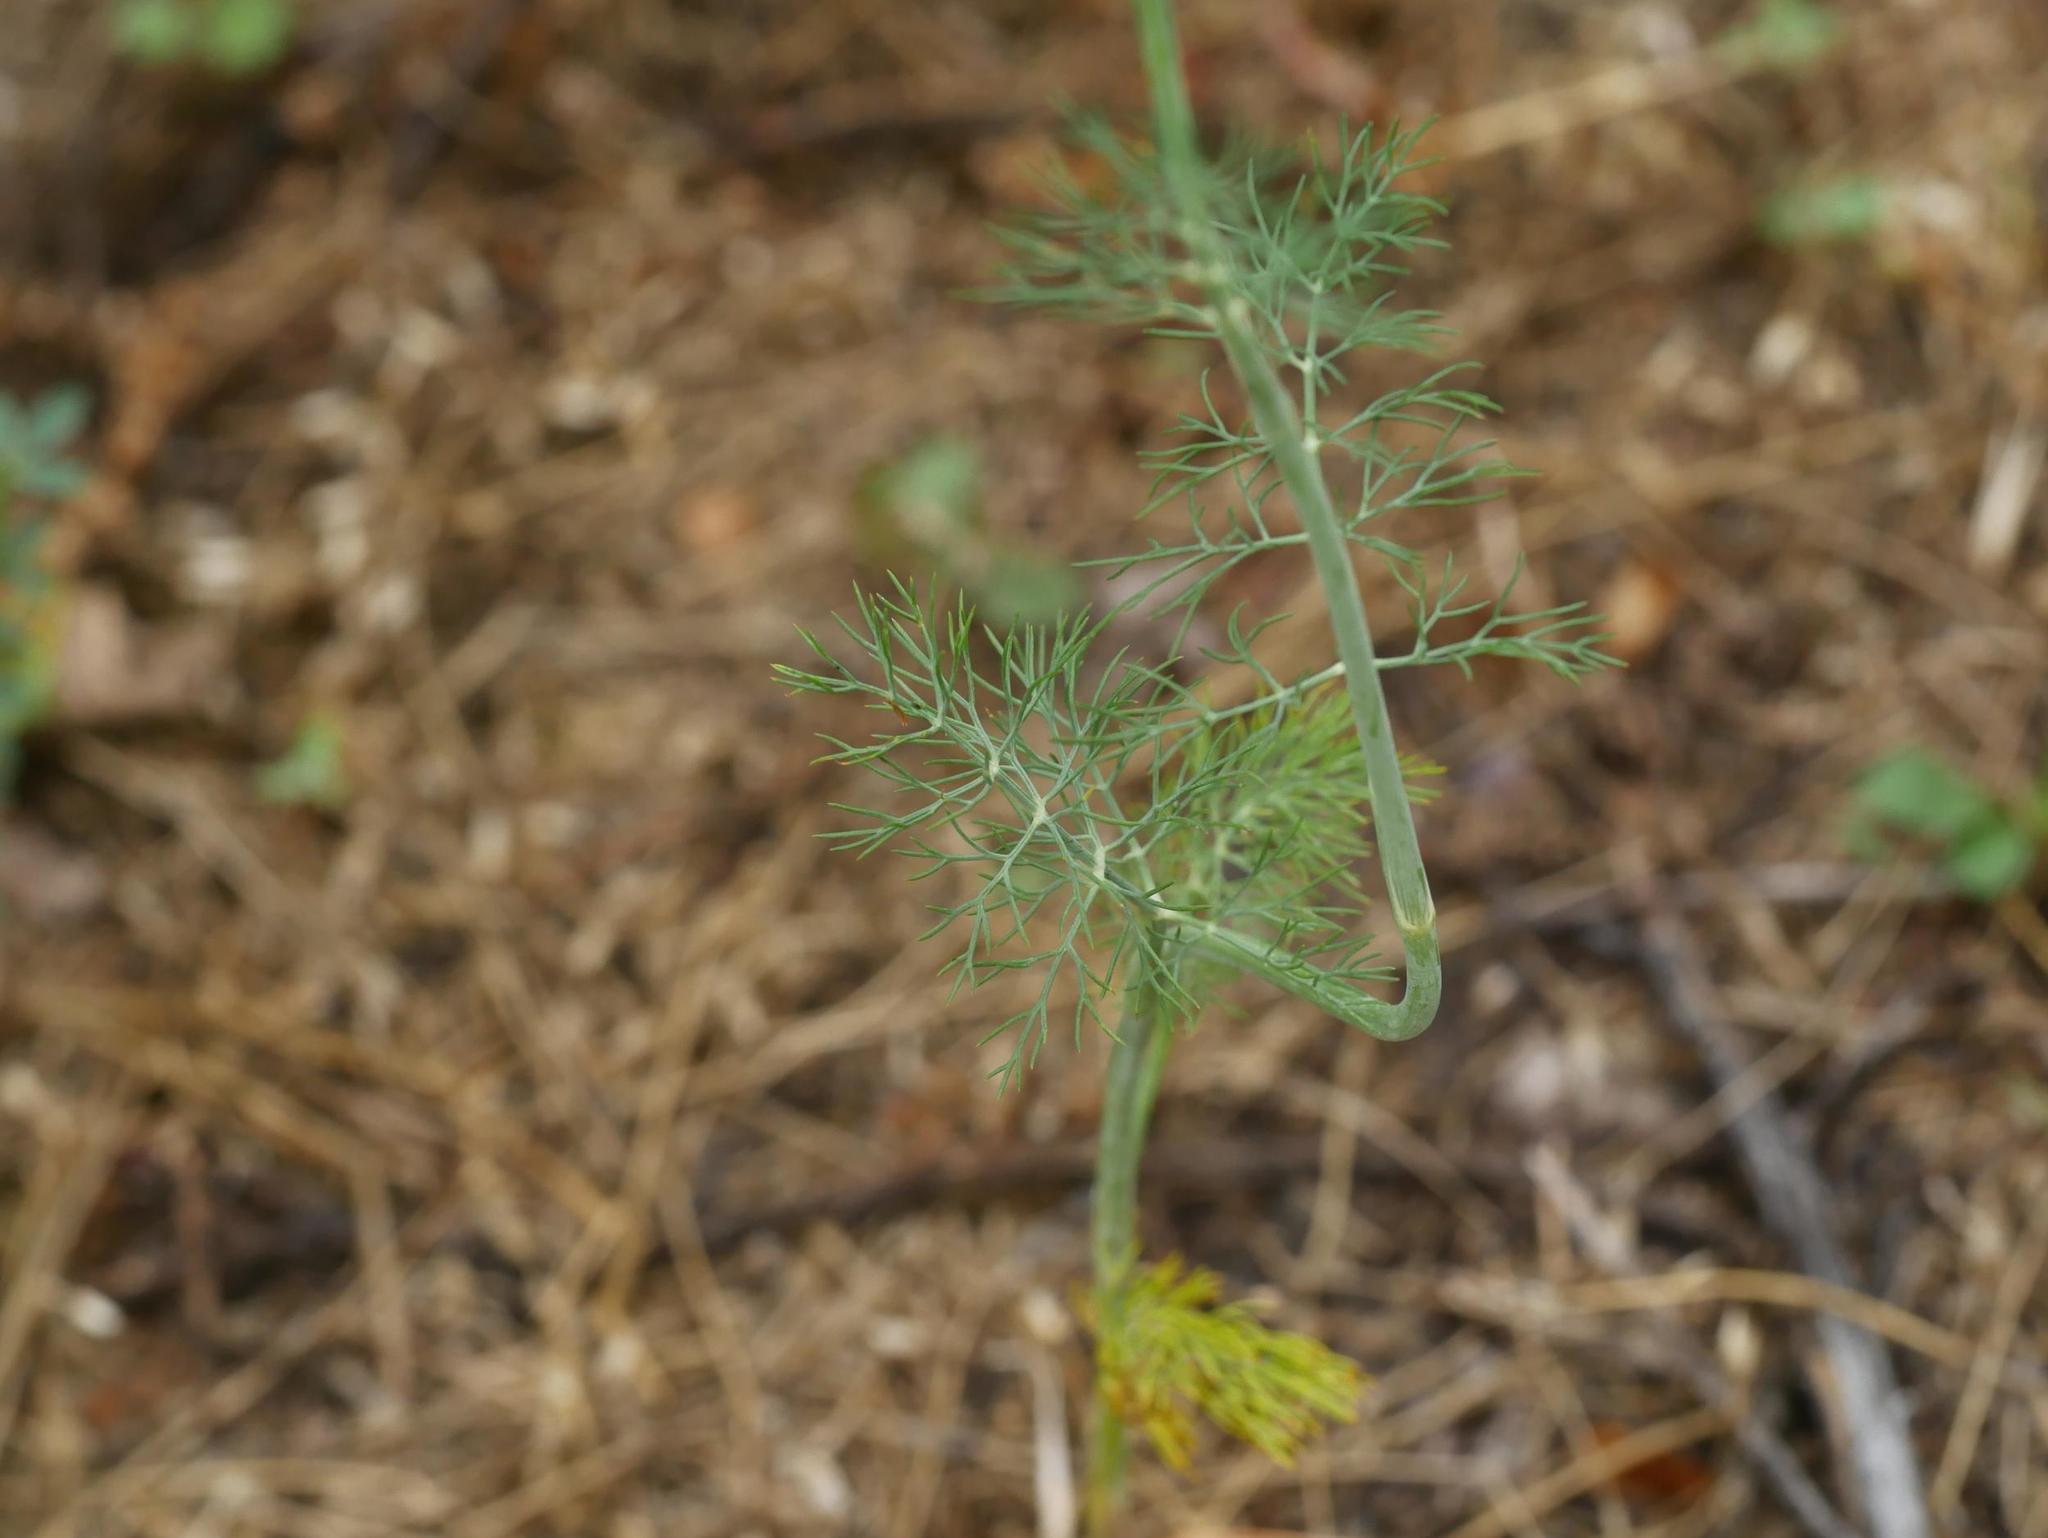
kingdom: Plantae
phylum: Tracheophyta
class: Magnoliopsida
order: Apiales
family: Apiaceae
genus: Foeniculum
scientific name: Foeniculum vulgare
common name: Fennel
